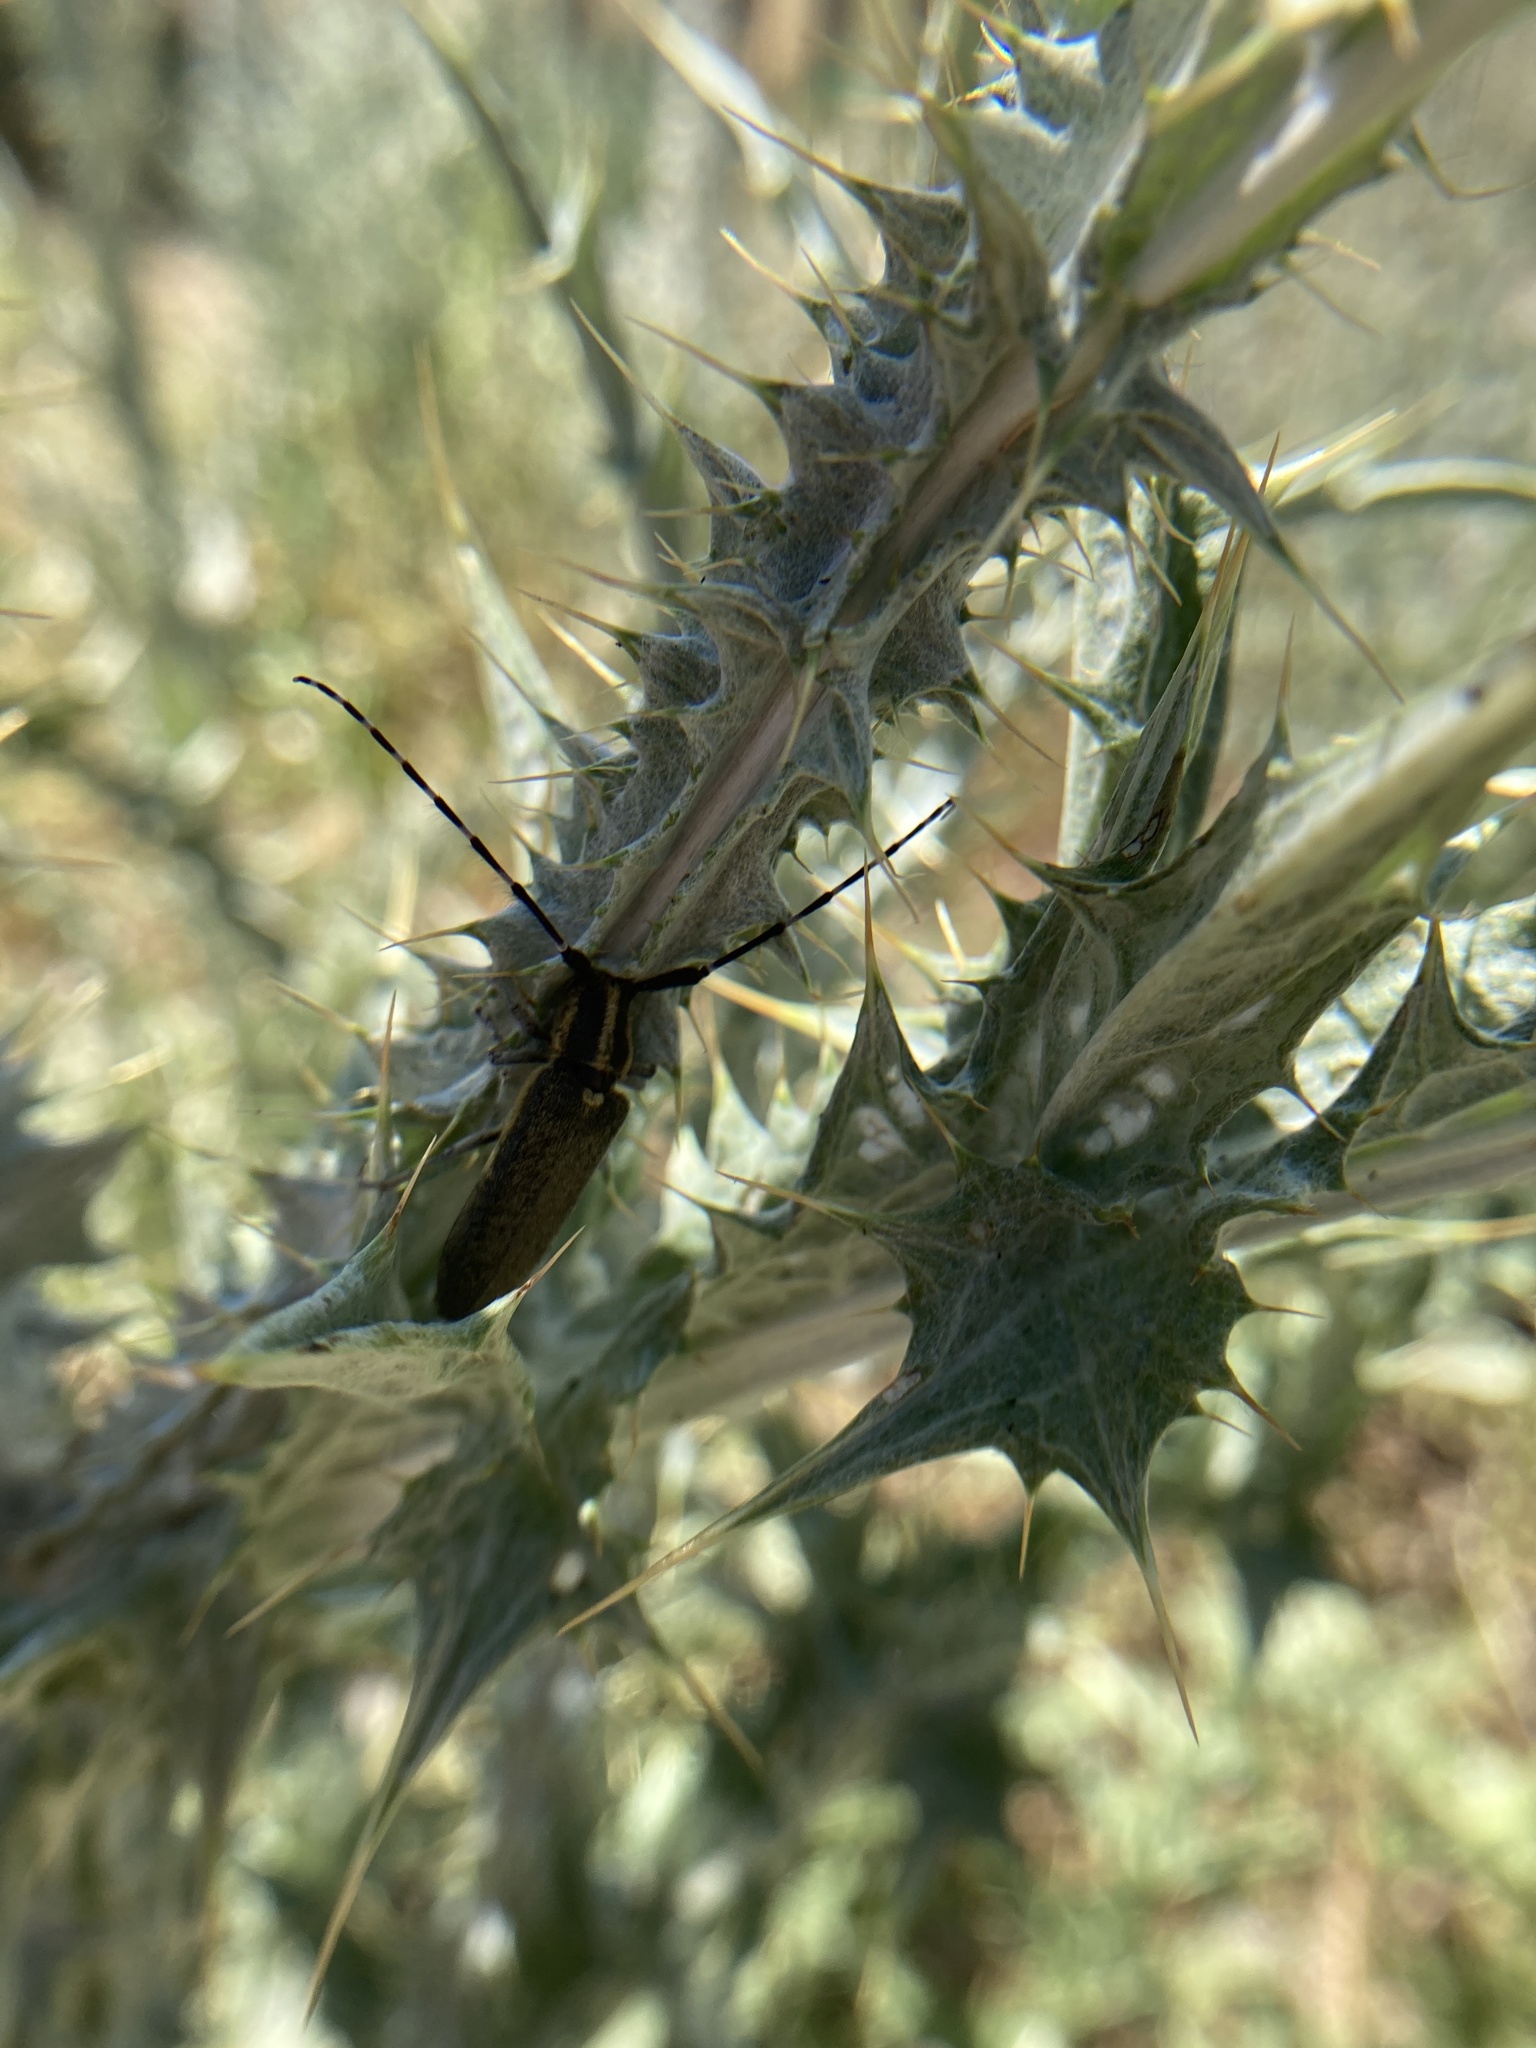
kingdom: Animalia
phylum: Arthropoda
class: Insecta
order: Coleoptera
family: Cerambycidae
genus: Agapanthia
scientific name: Agapanthia cynarae
